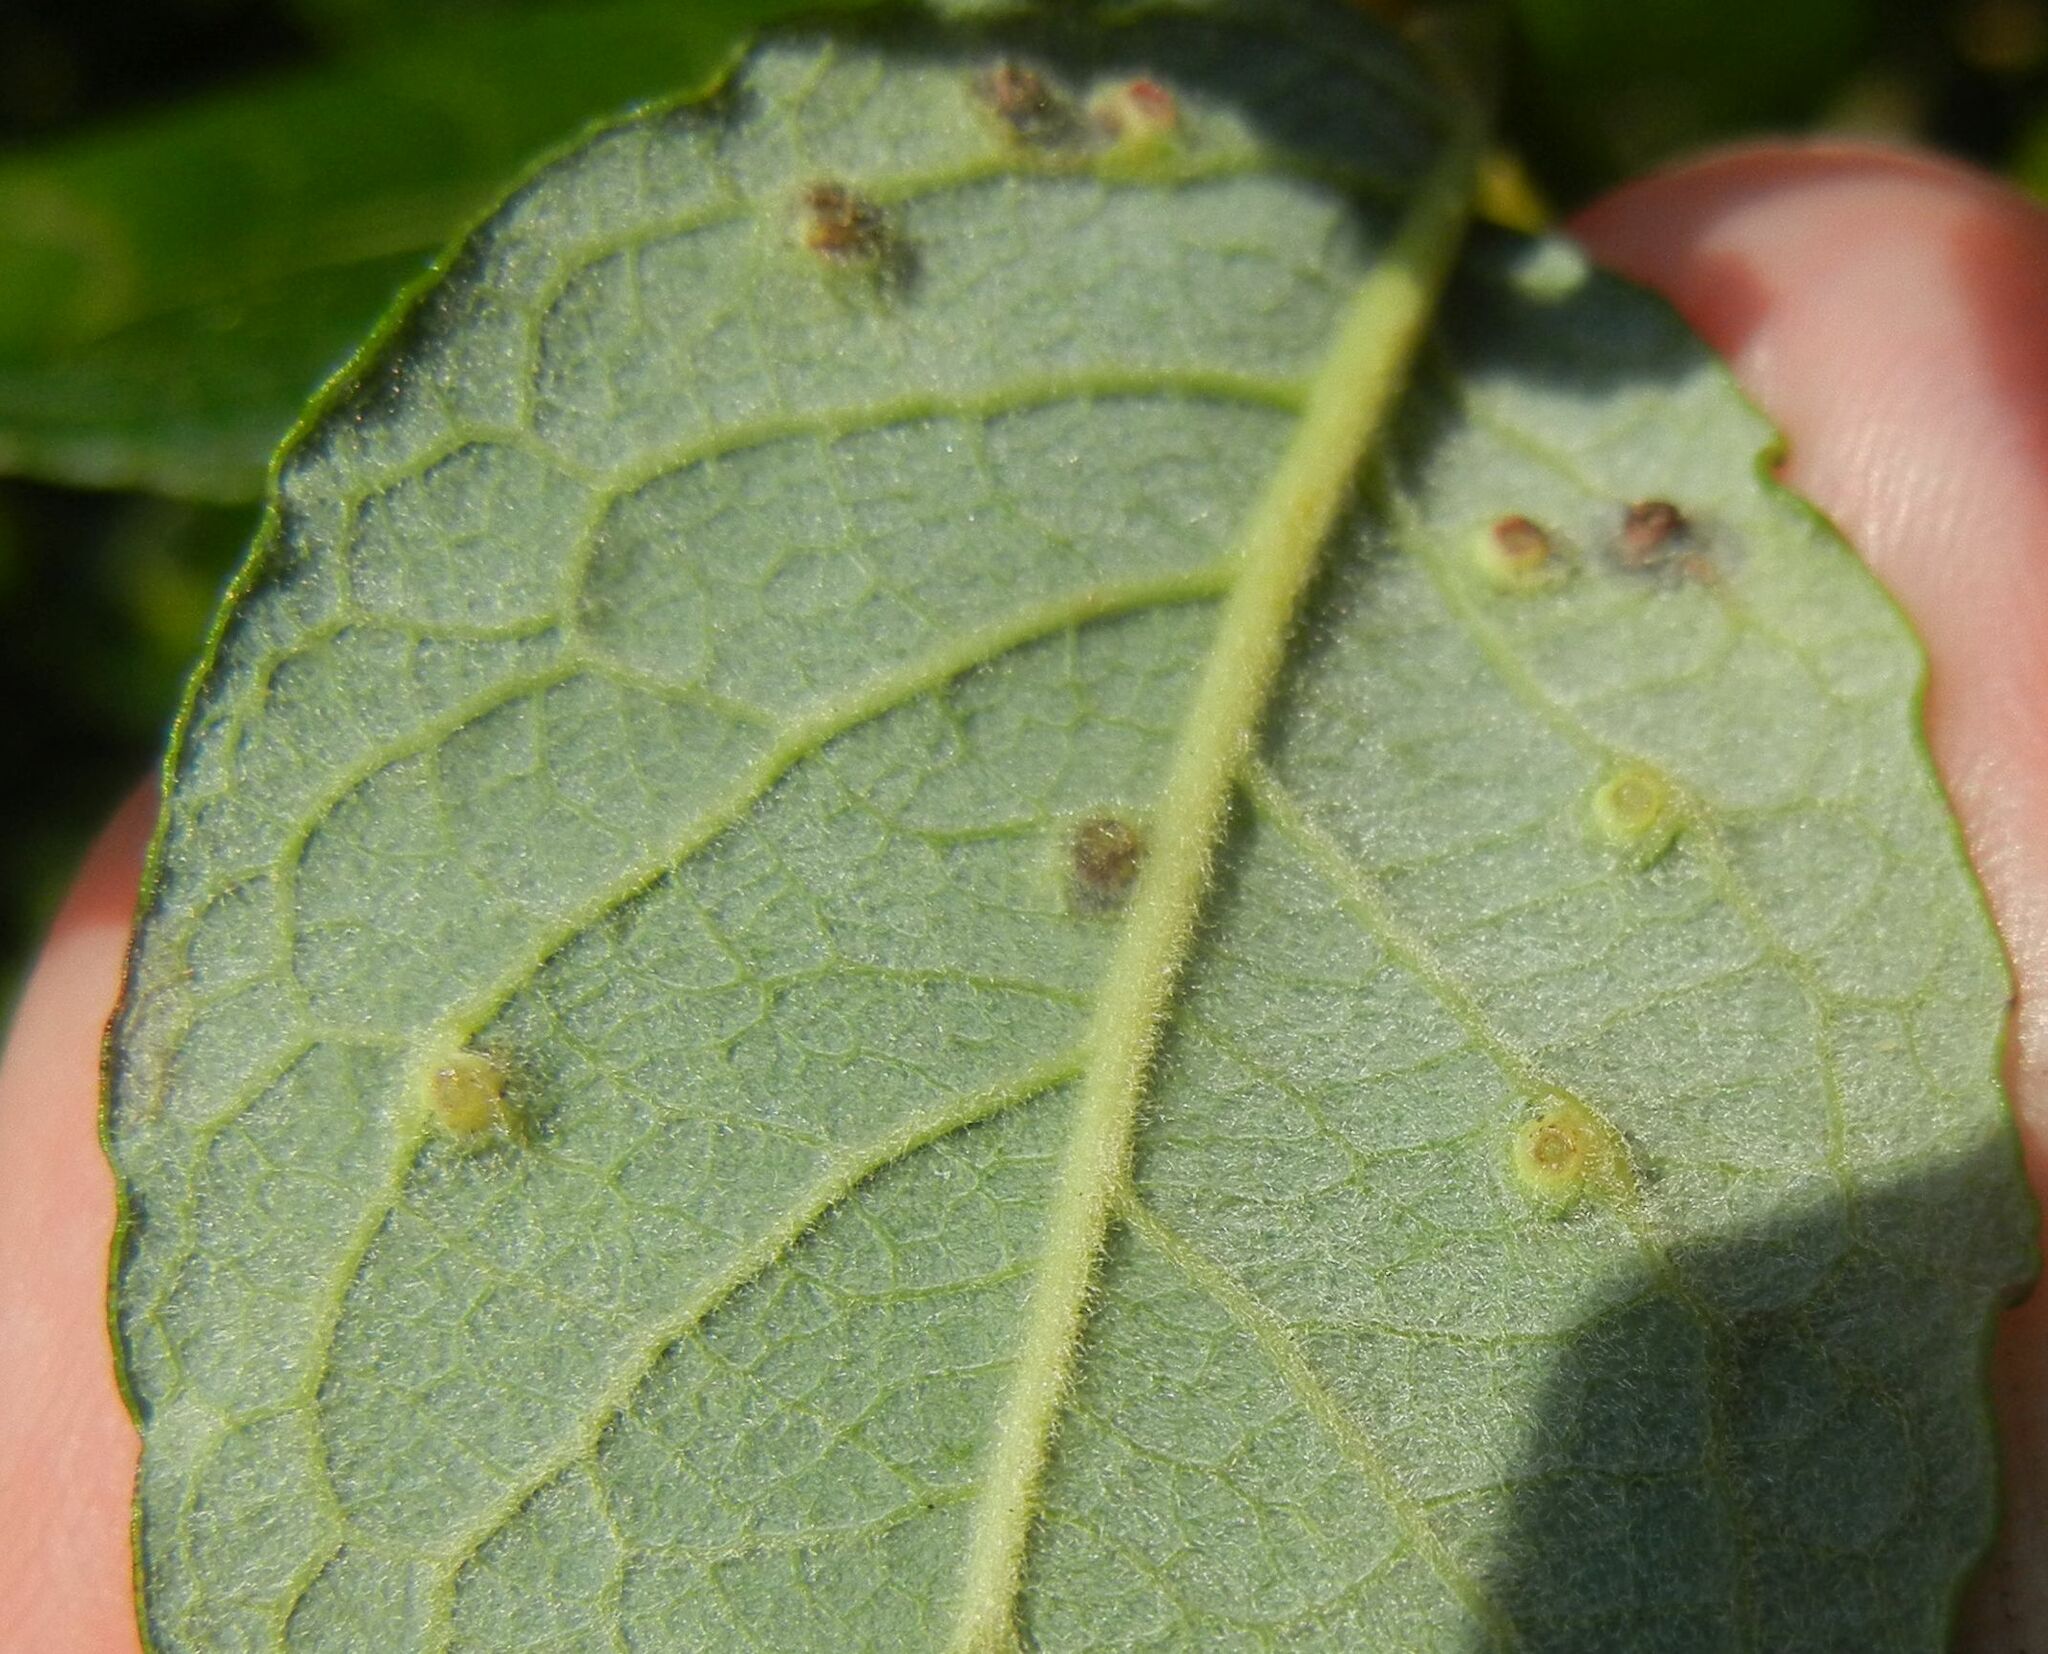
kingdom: Animalia
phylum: Arthropoda
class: Insecta
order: Diptera
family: Cecidomyiidae
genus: Iteomyia
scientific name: Iteomyia capreae
